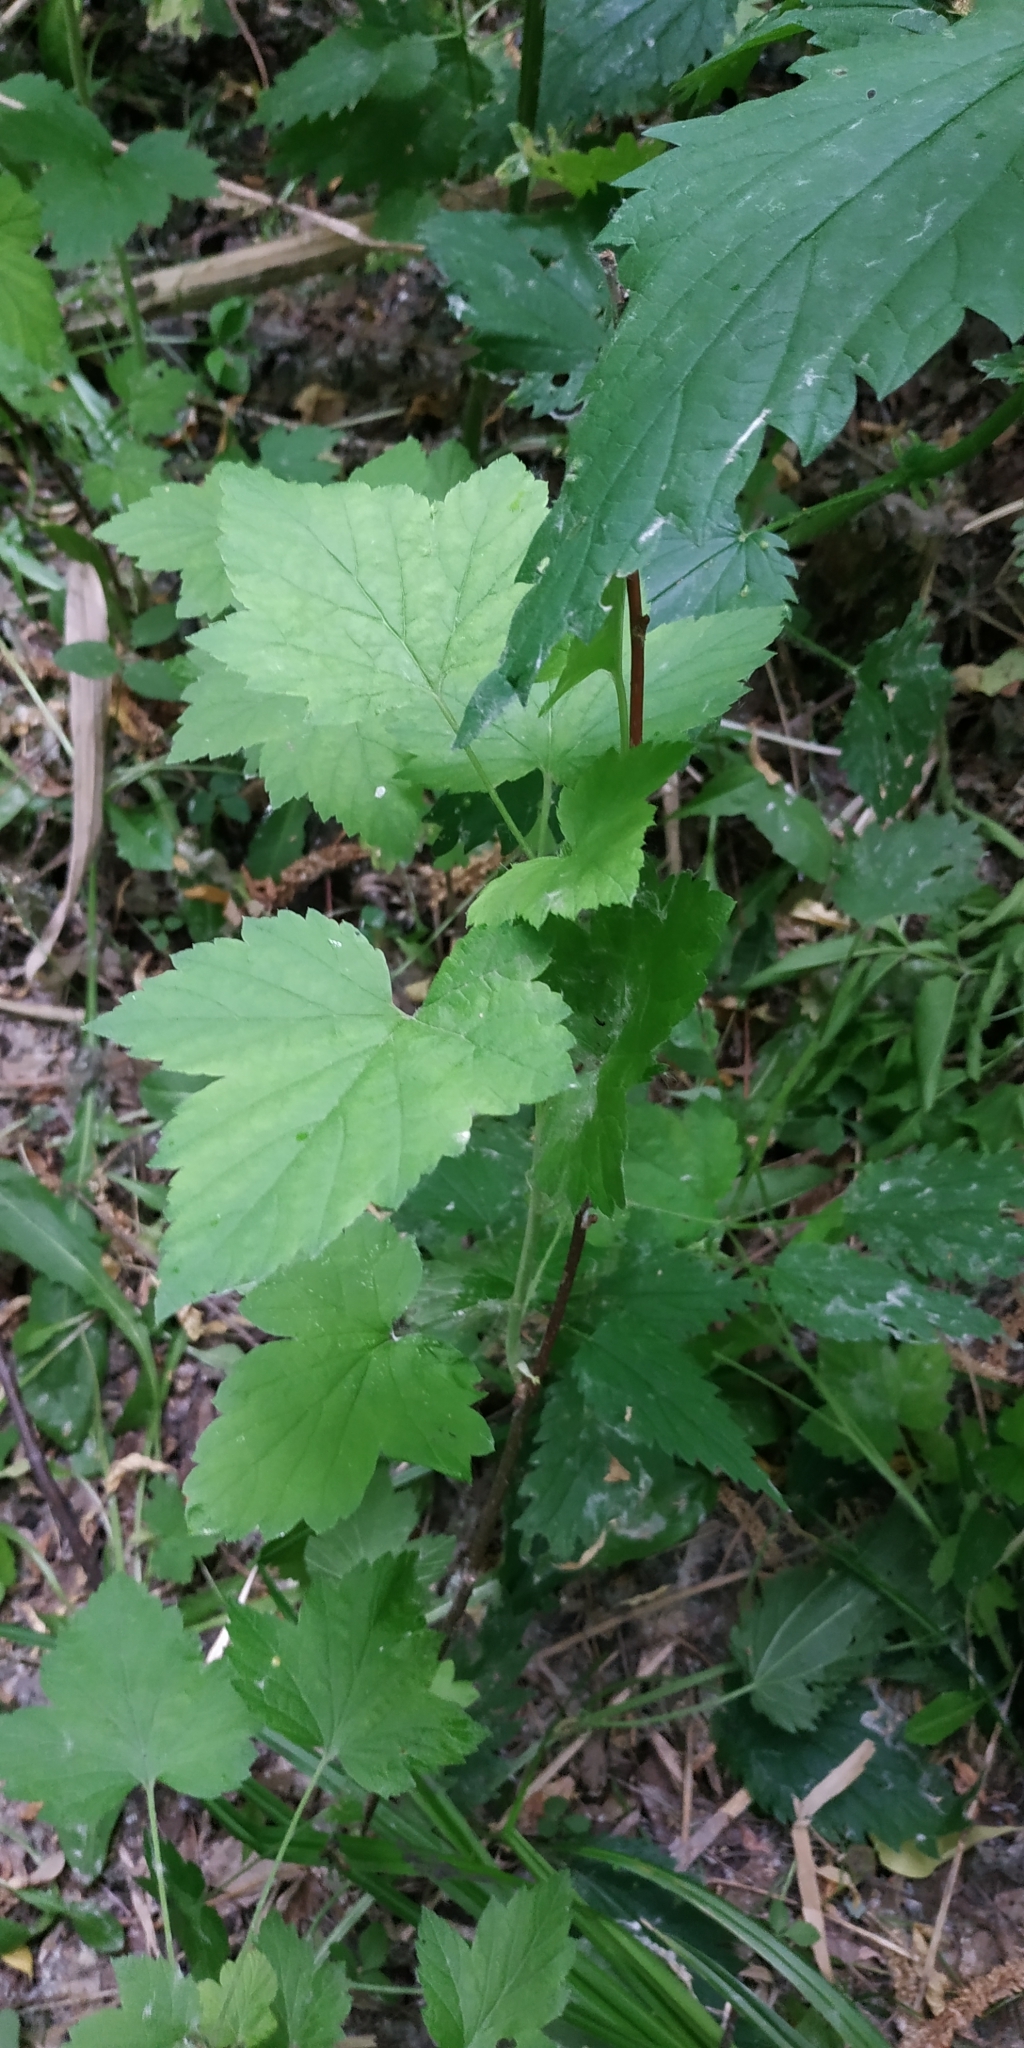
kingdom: Plantae
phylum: Tracheophyta
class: Magnoliopsida
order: Saxifragales
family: Grossulariaceae
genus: Ribes
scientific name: Ribes nigrum
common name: Black currant
